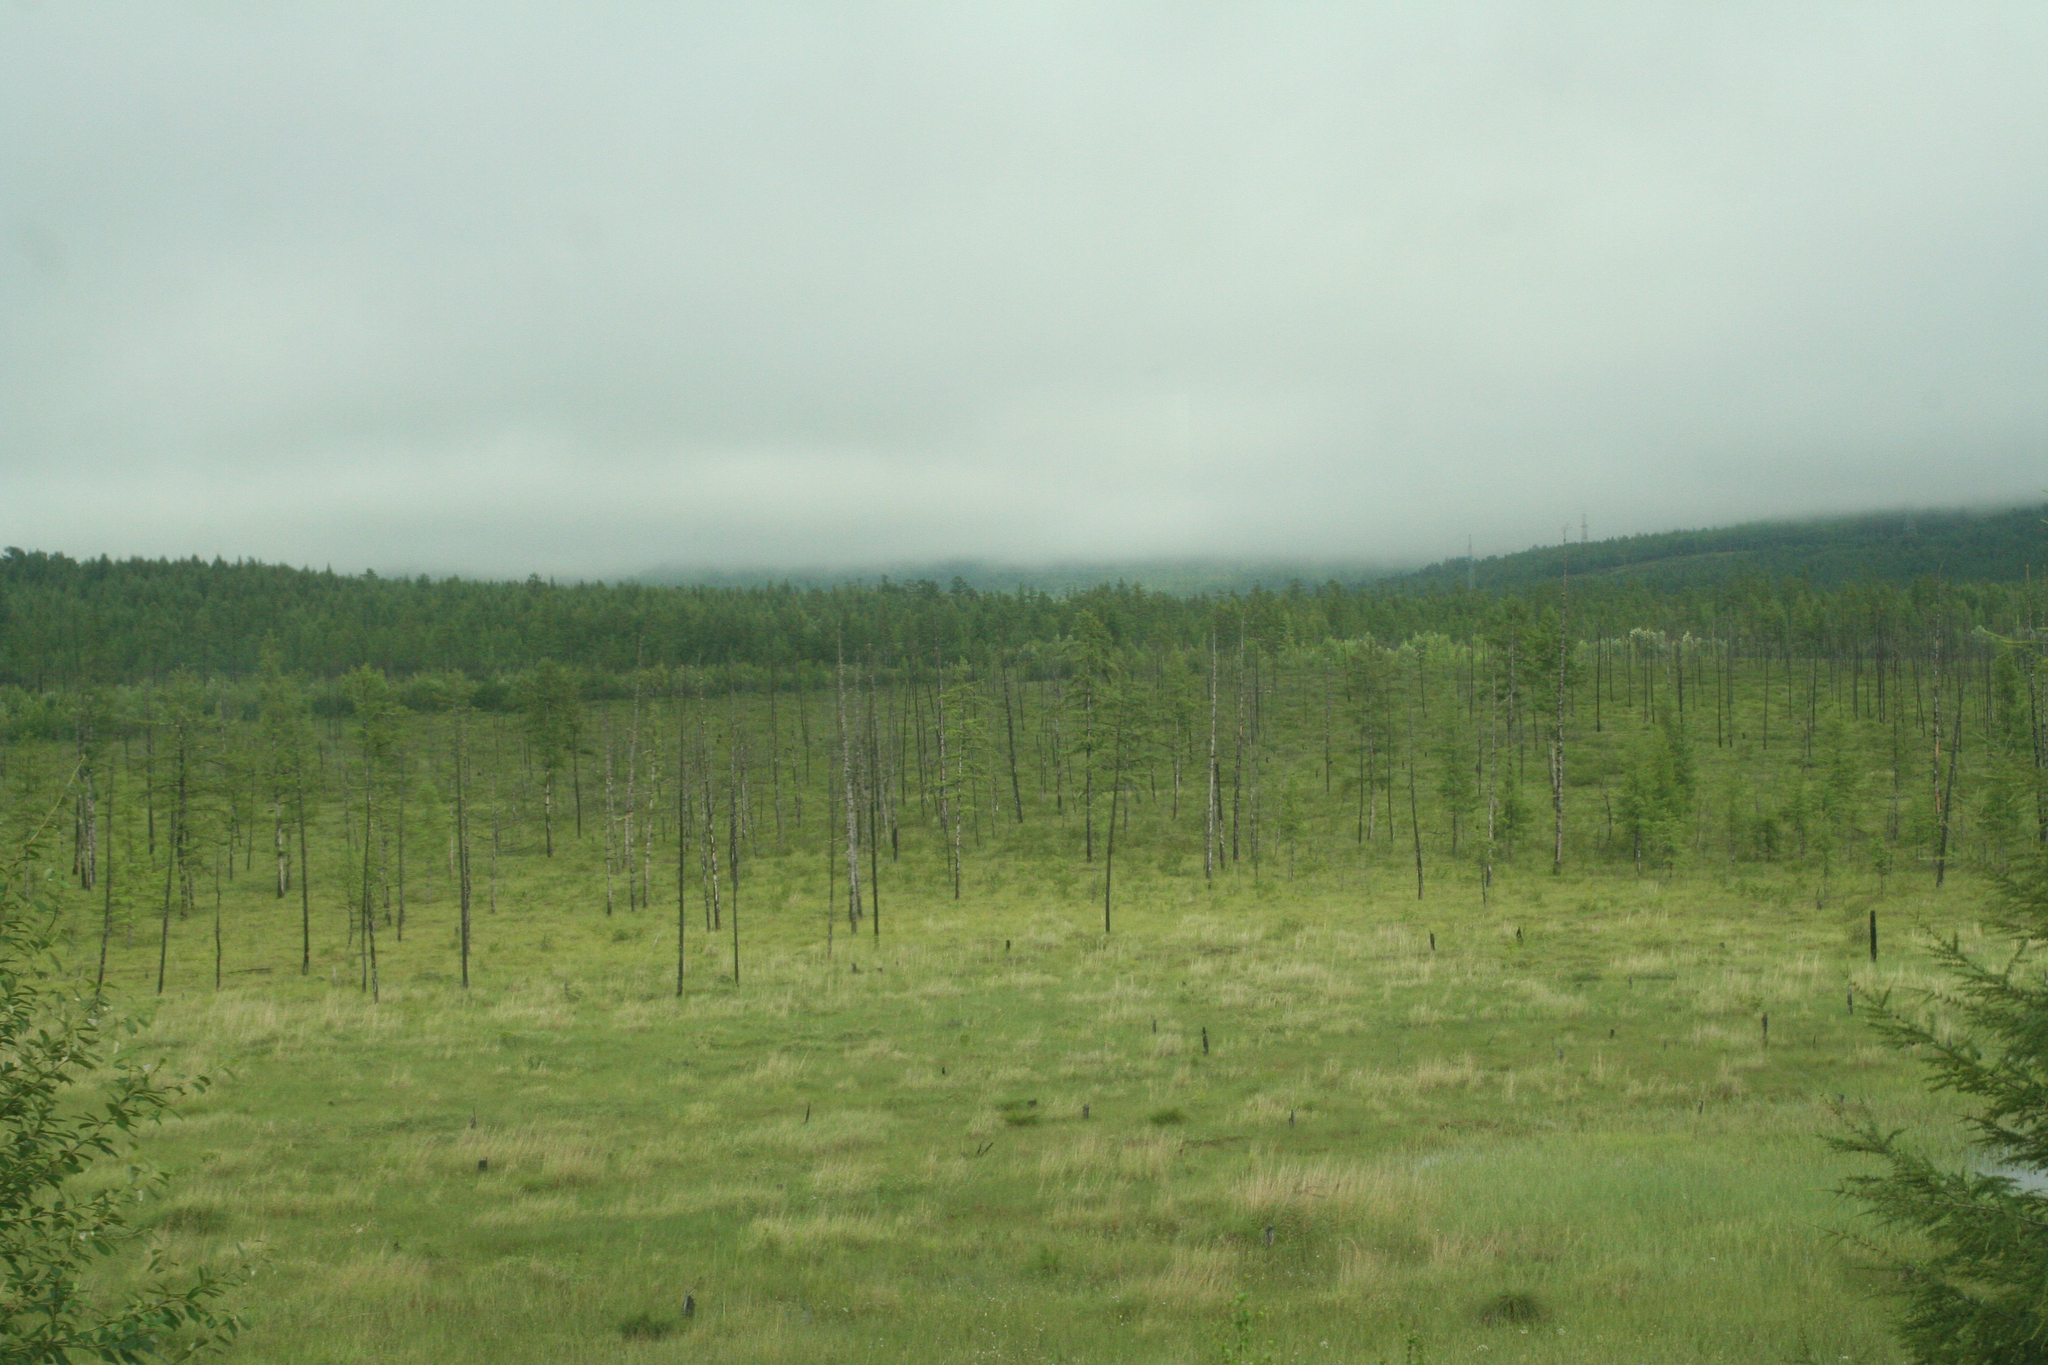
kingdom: Plantae
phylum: Tracheophyta
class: Pinopsida
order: Pinales
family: Pinaceae
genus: Larix
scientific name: Larix gmelinii
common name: Dahurian larch
